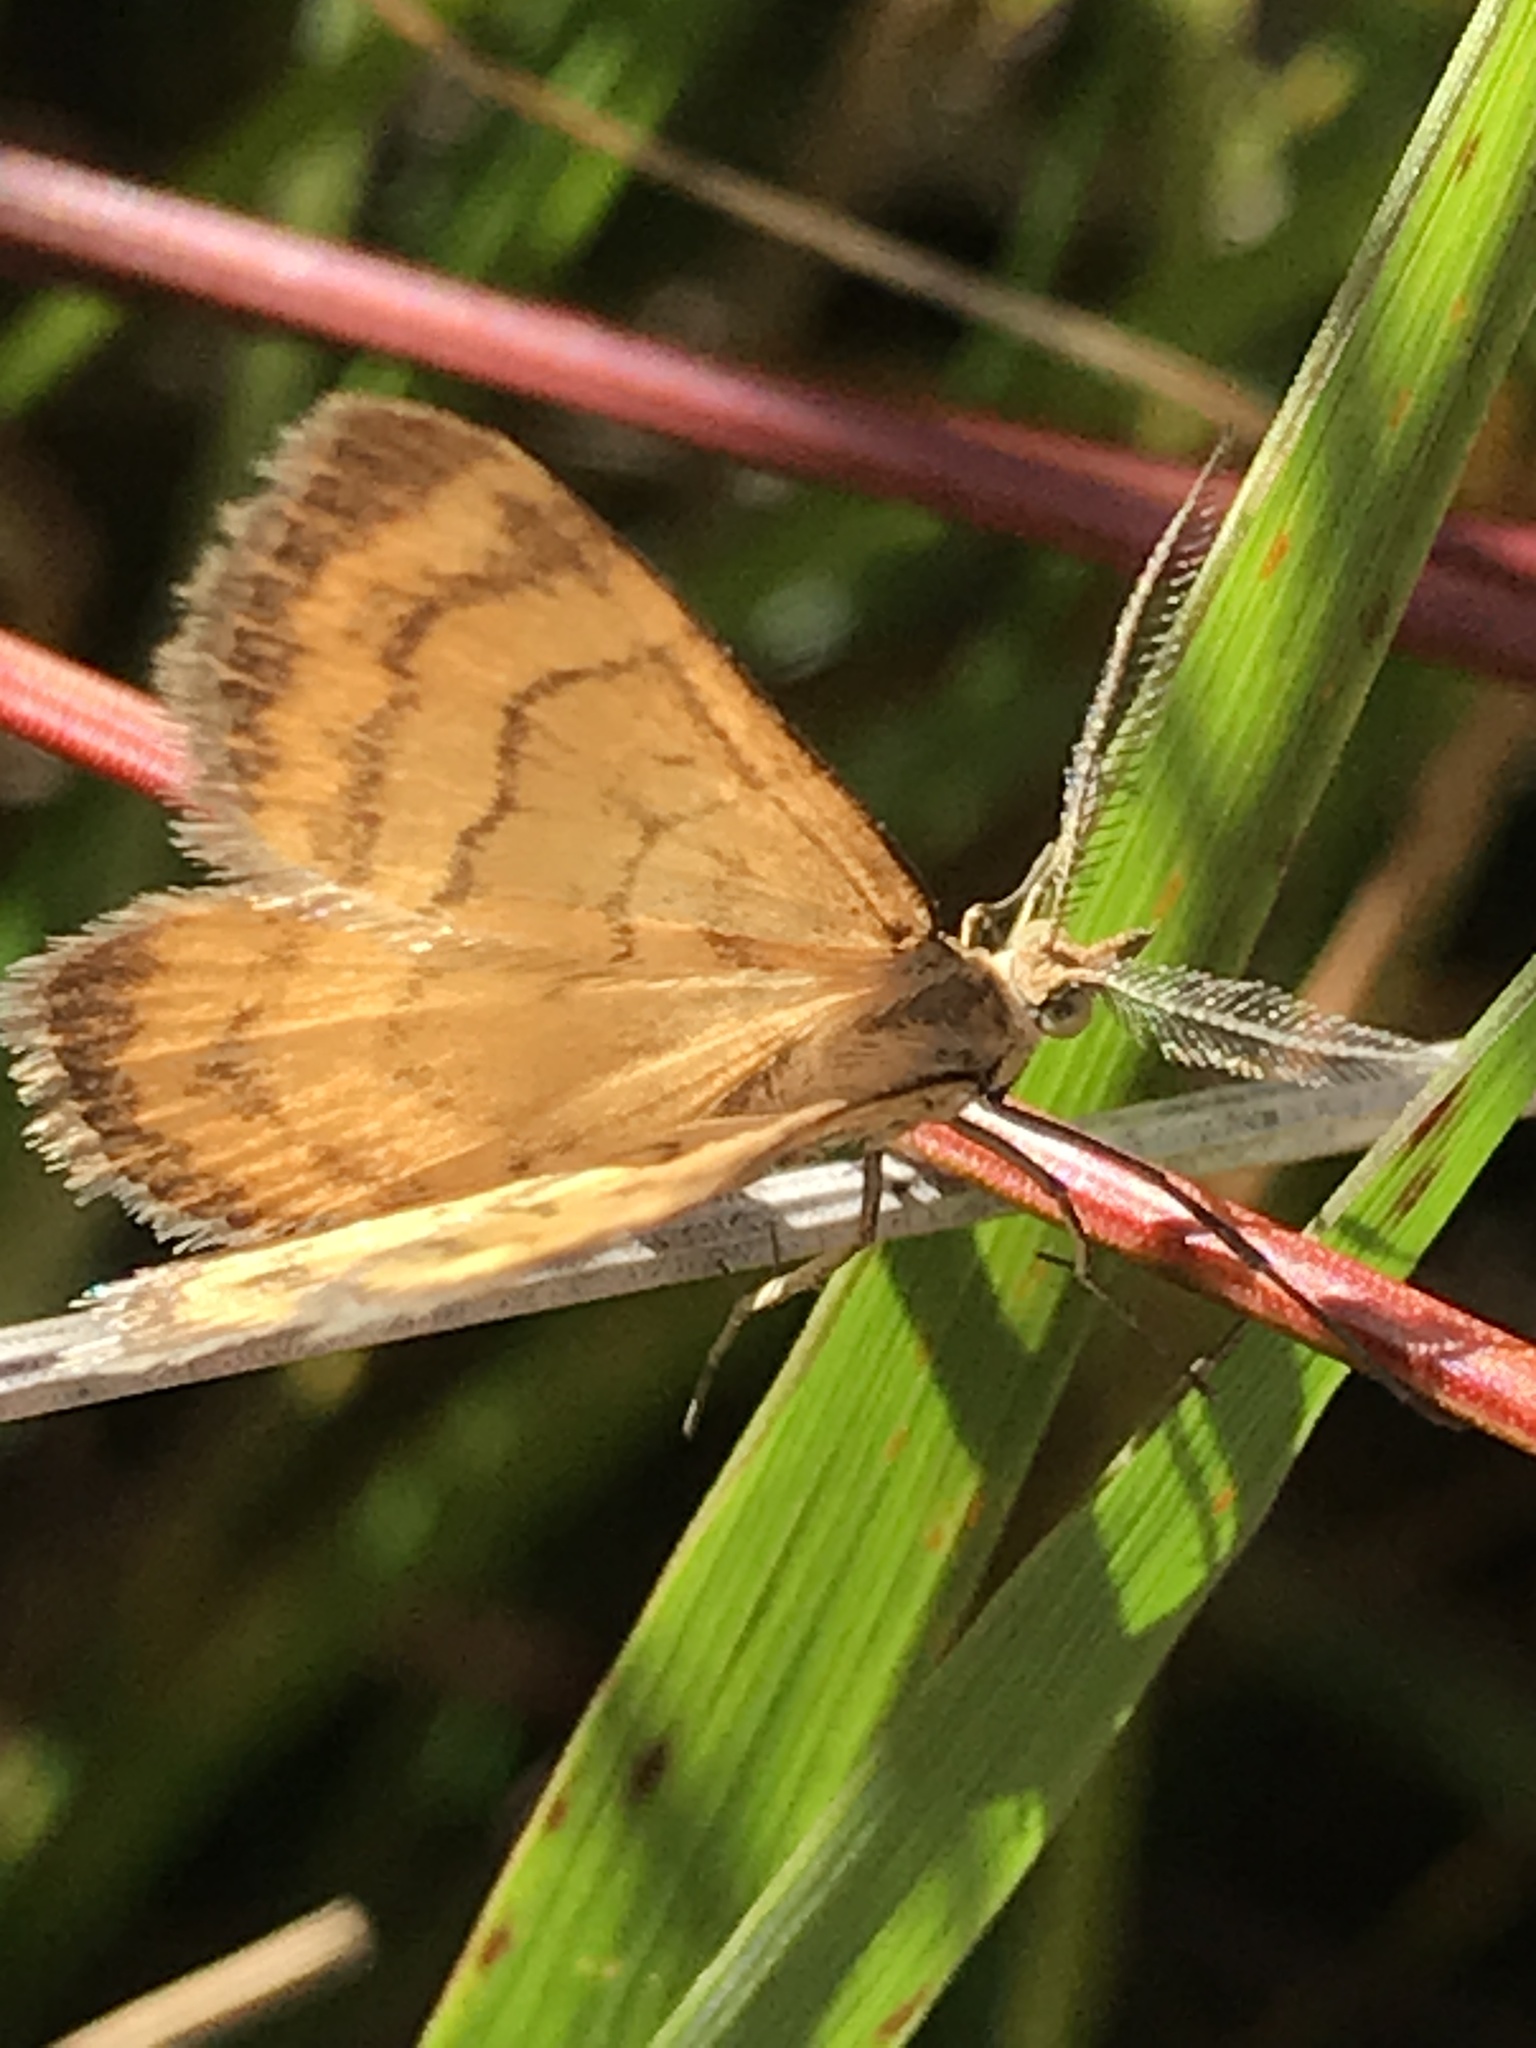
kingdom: Animalia
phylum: Arthropoda
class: Insecta
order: Lepidoptera
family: Geometridae
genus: Asaphodes
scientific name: Asaphodes abrogata
